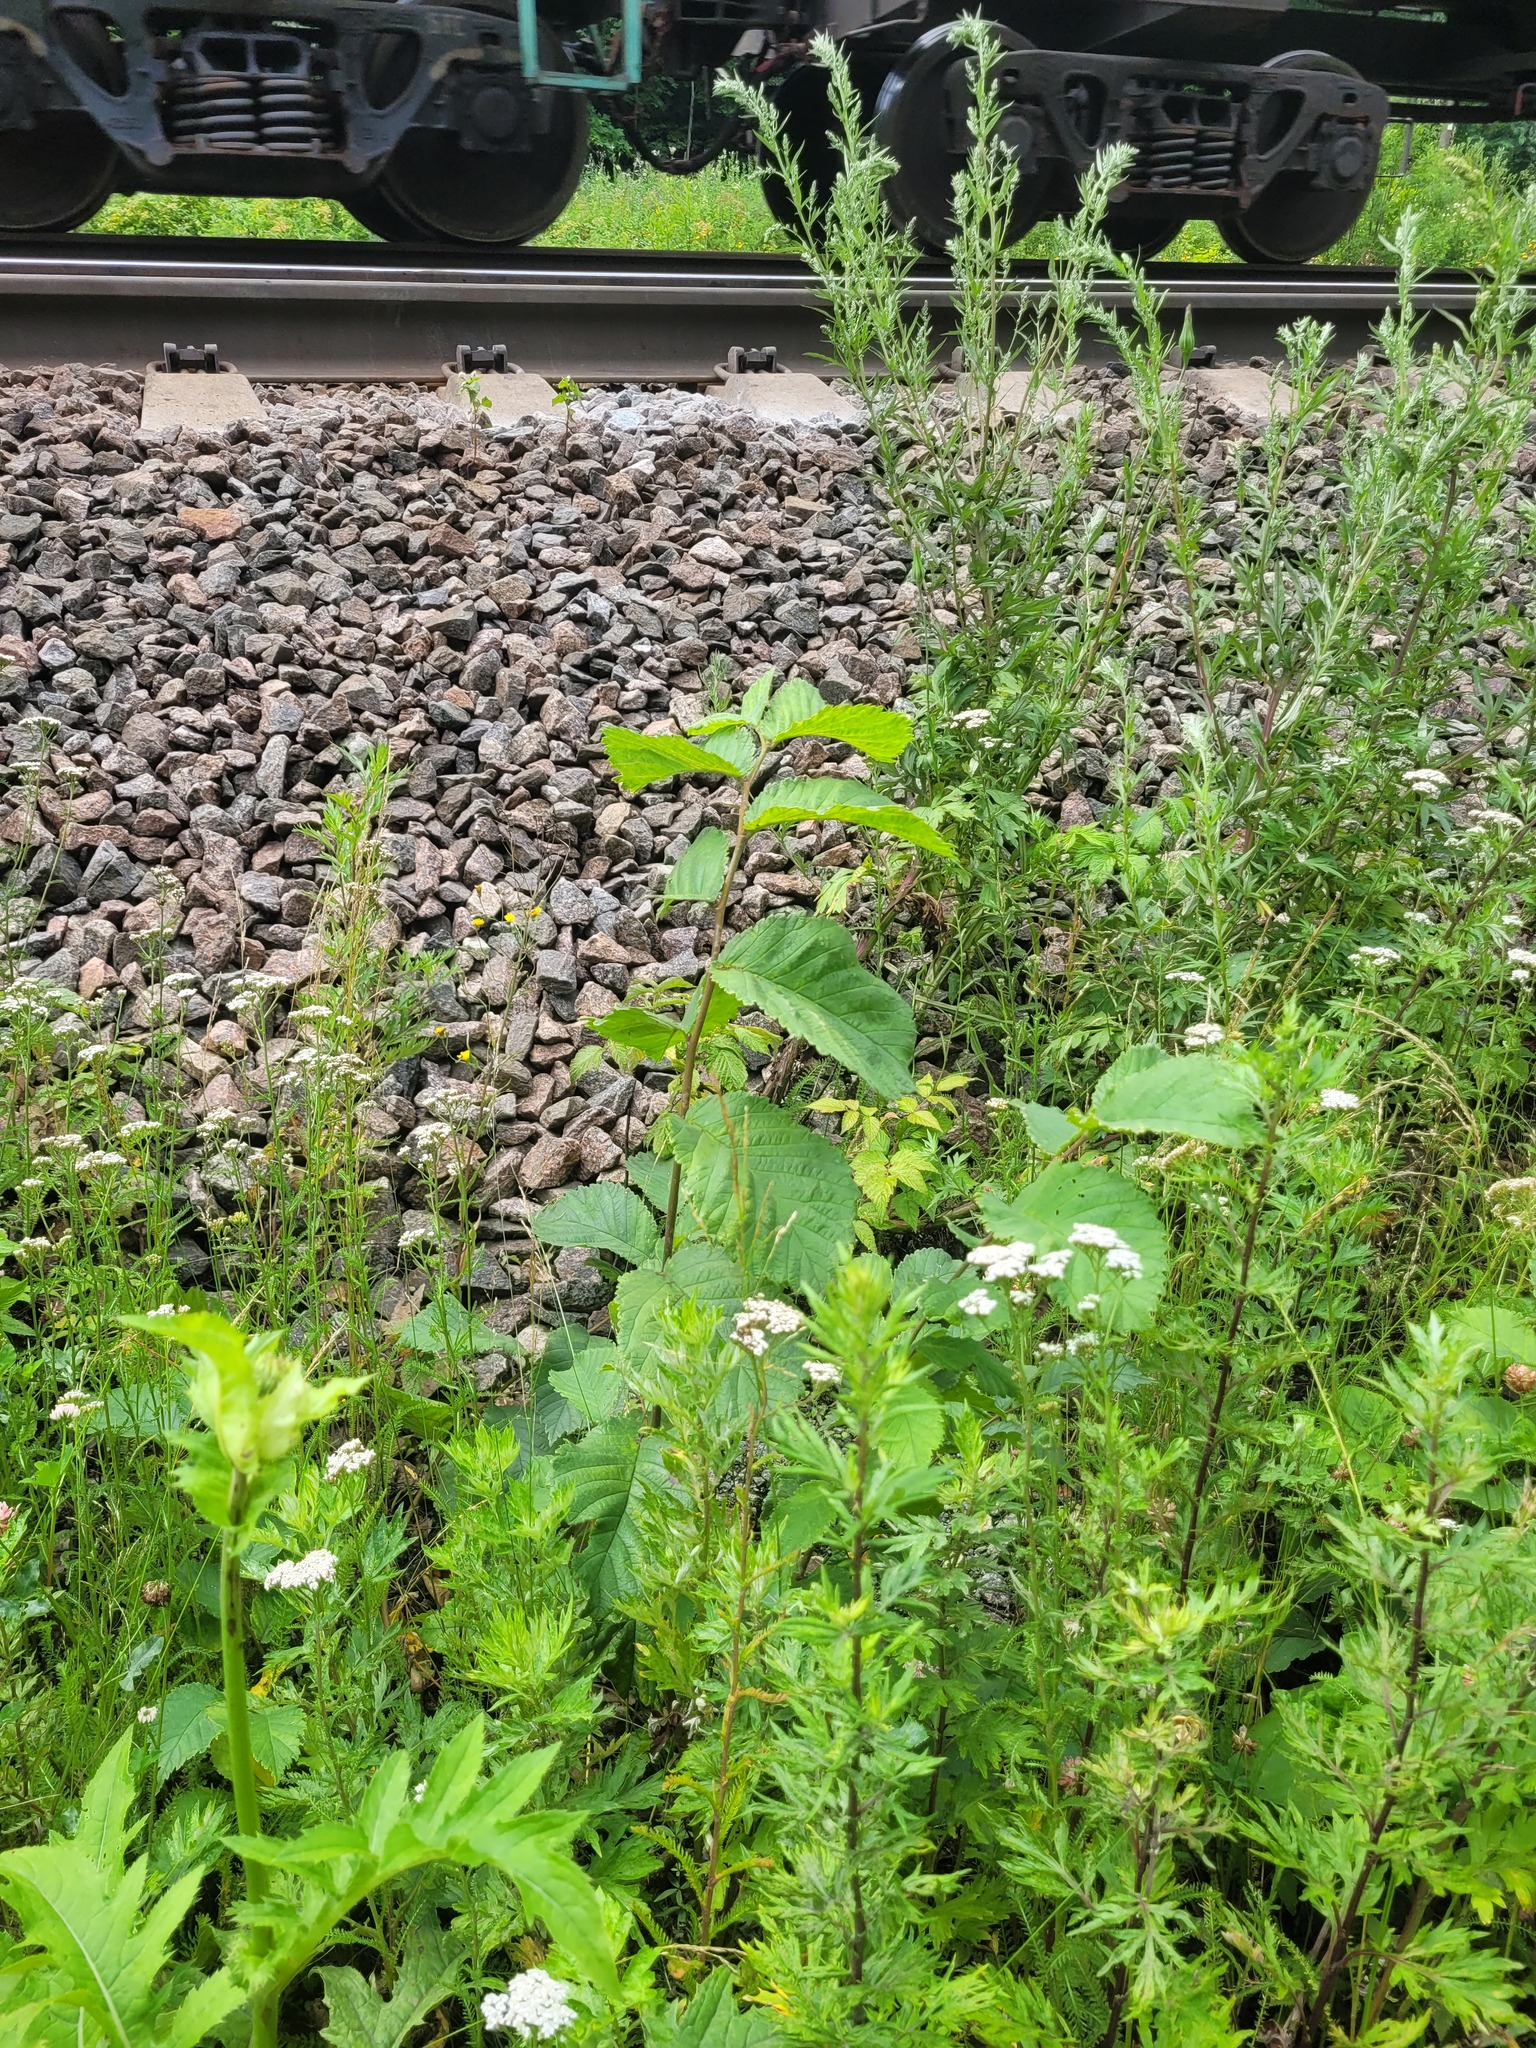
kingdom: Plantae
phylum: Tracheophyta
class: Magnoliopsida
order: Rosales
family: Ulmaceae
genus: Ulmus
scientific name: Ulmus glabra
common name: Wych elm
